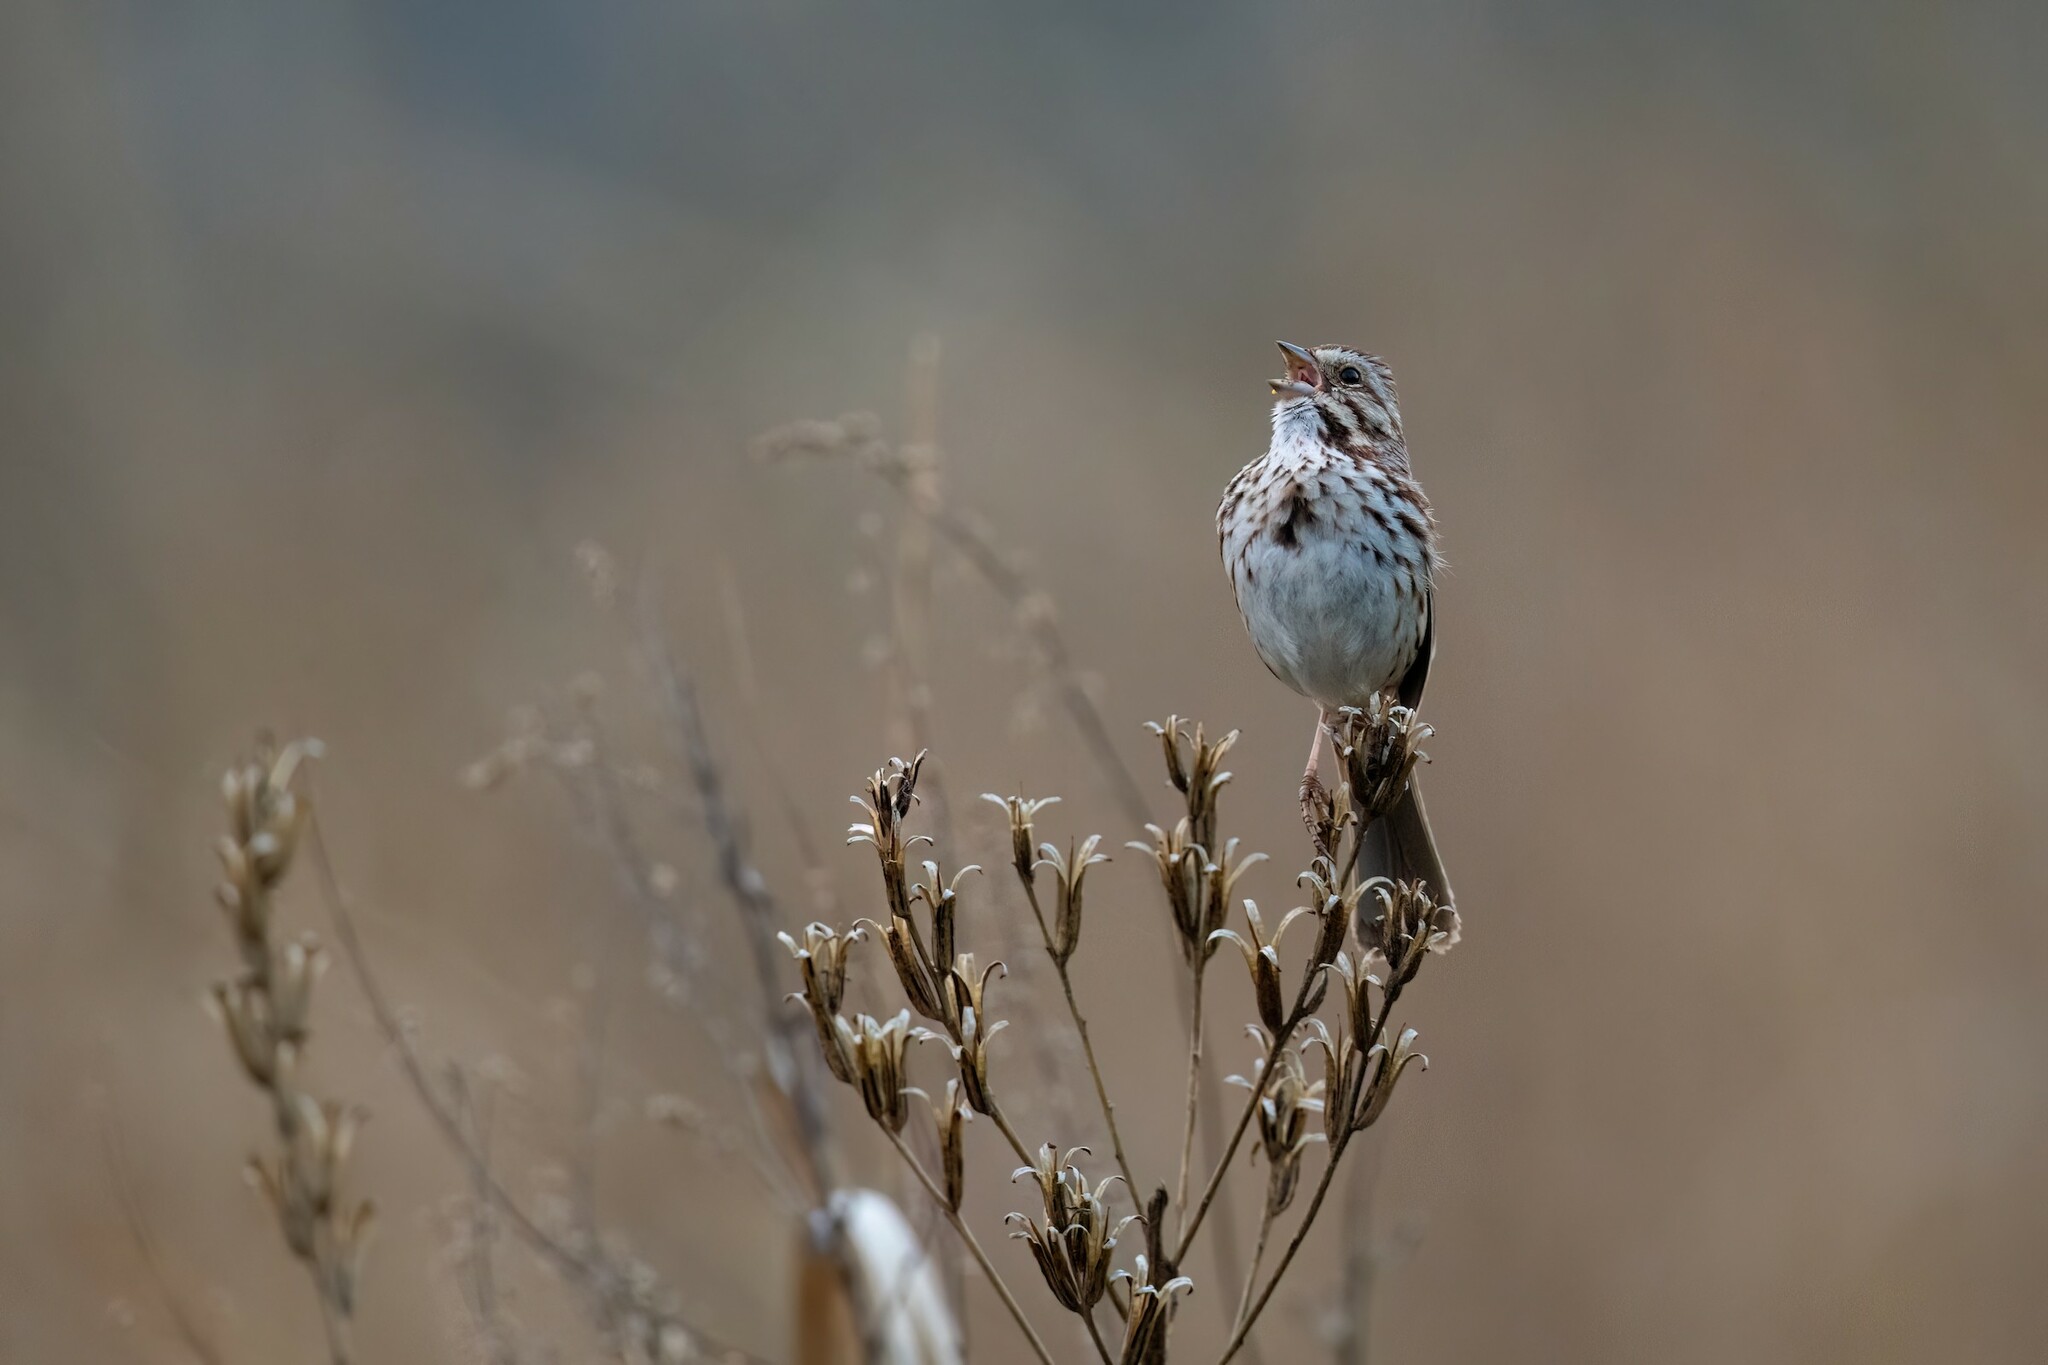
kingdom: Animalia
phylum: Chordata
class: Aves
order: Passeriformes
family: Passerellidae
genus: Melospiza
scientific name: Melospiza melodia
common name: Song sparrow
